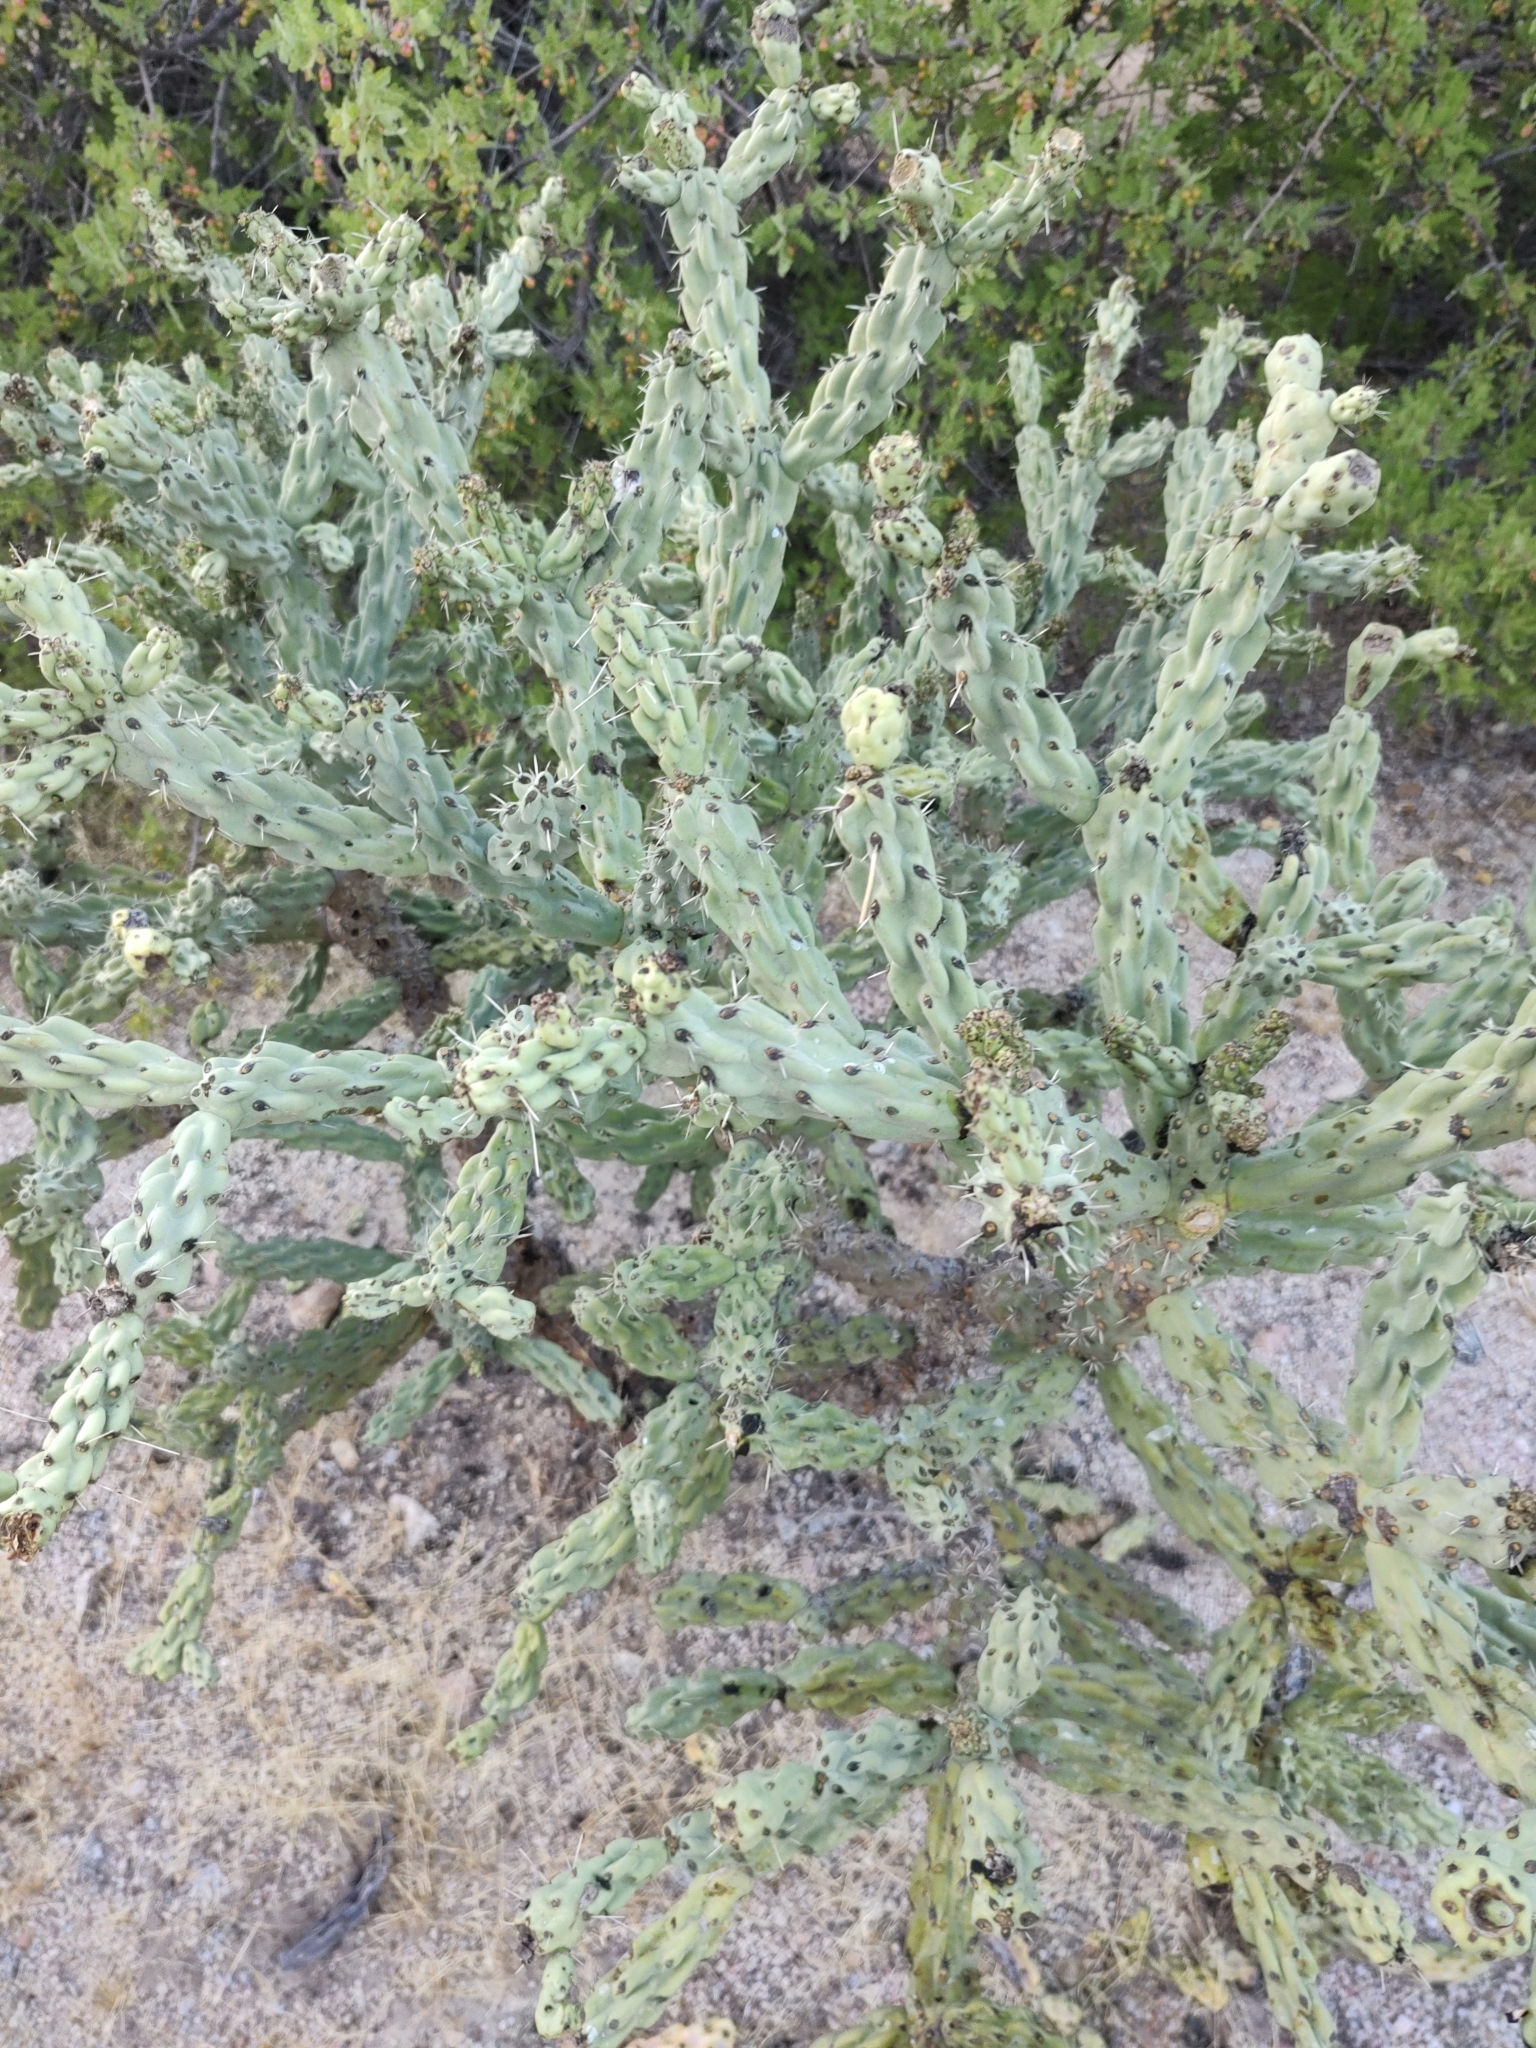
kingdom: Plantae
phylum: Tracheophyta
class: Magnoliopsida
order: Caryophyllales
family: Cactaceae
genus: Cylindropuntia
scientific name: Cylindropuntia cholla
